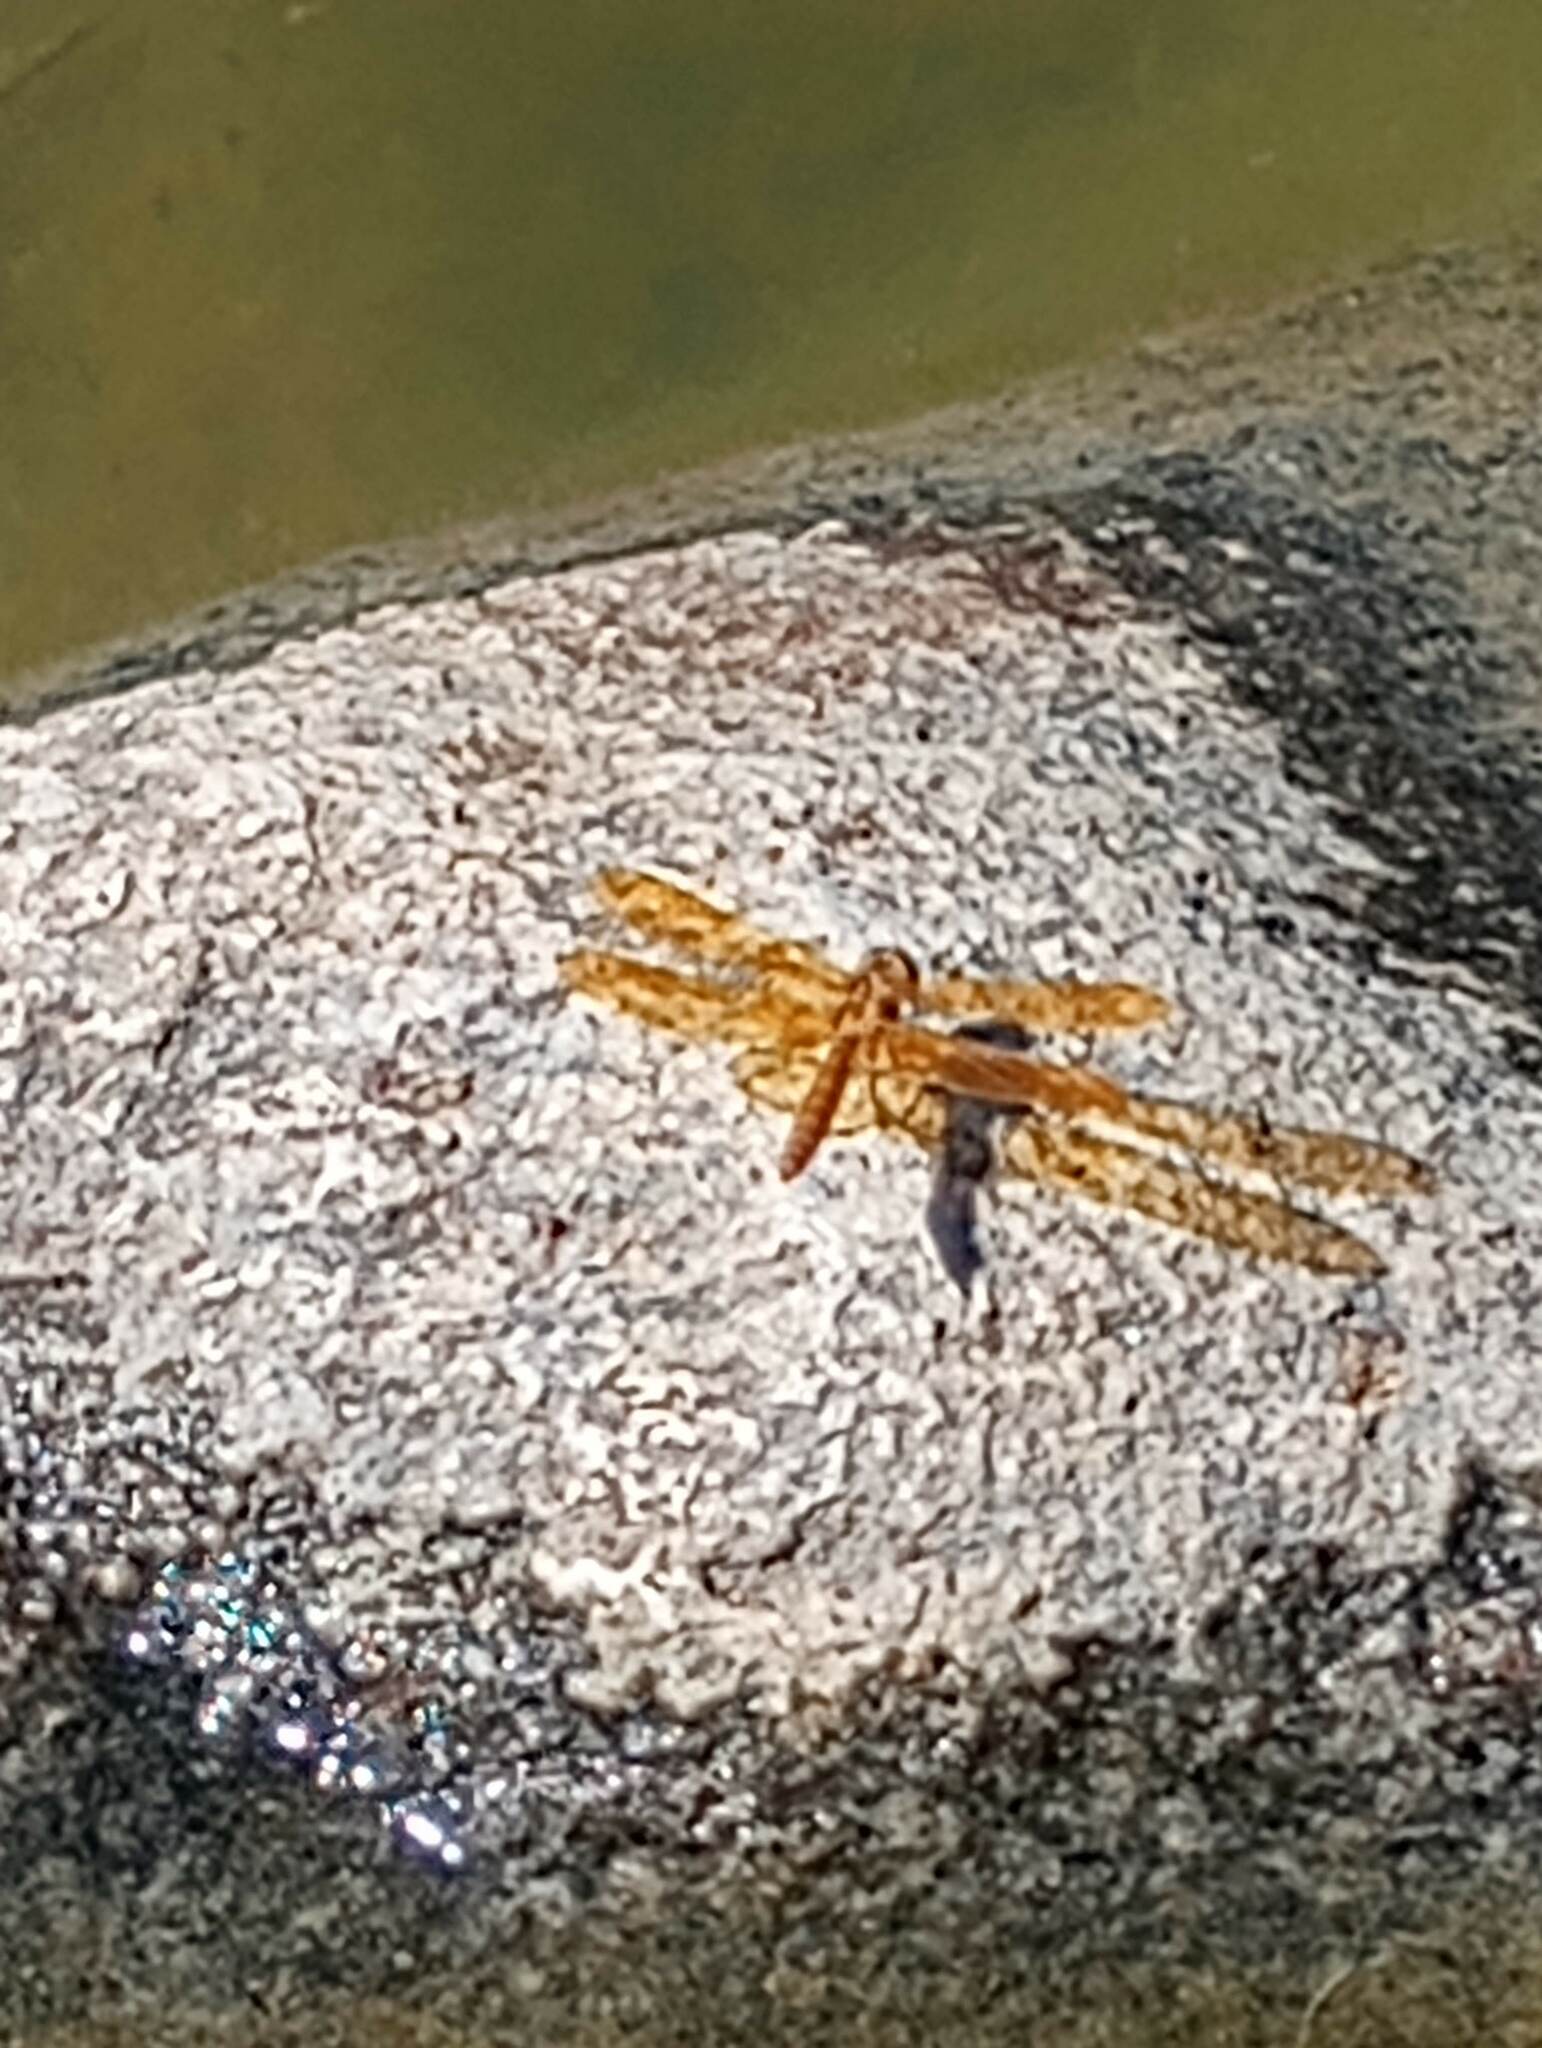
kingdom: Animalia
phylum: Arthropoda
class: Insecta
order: Odonata
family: Libellulidae
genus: Perithemis
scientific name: Perithemis intensa
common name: Mexican amberwing
